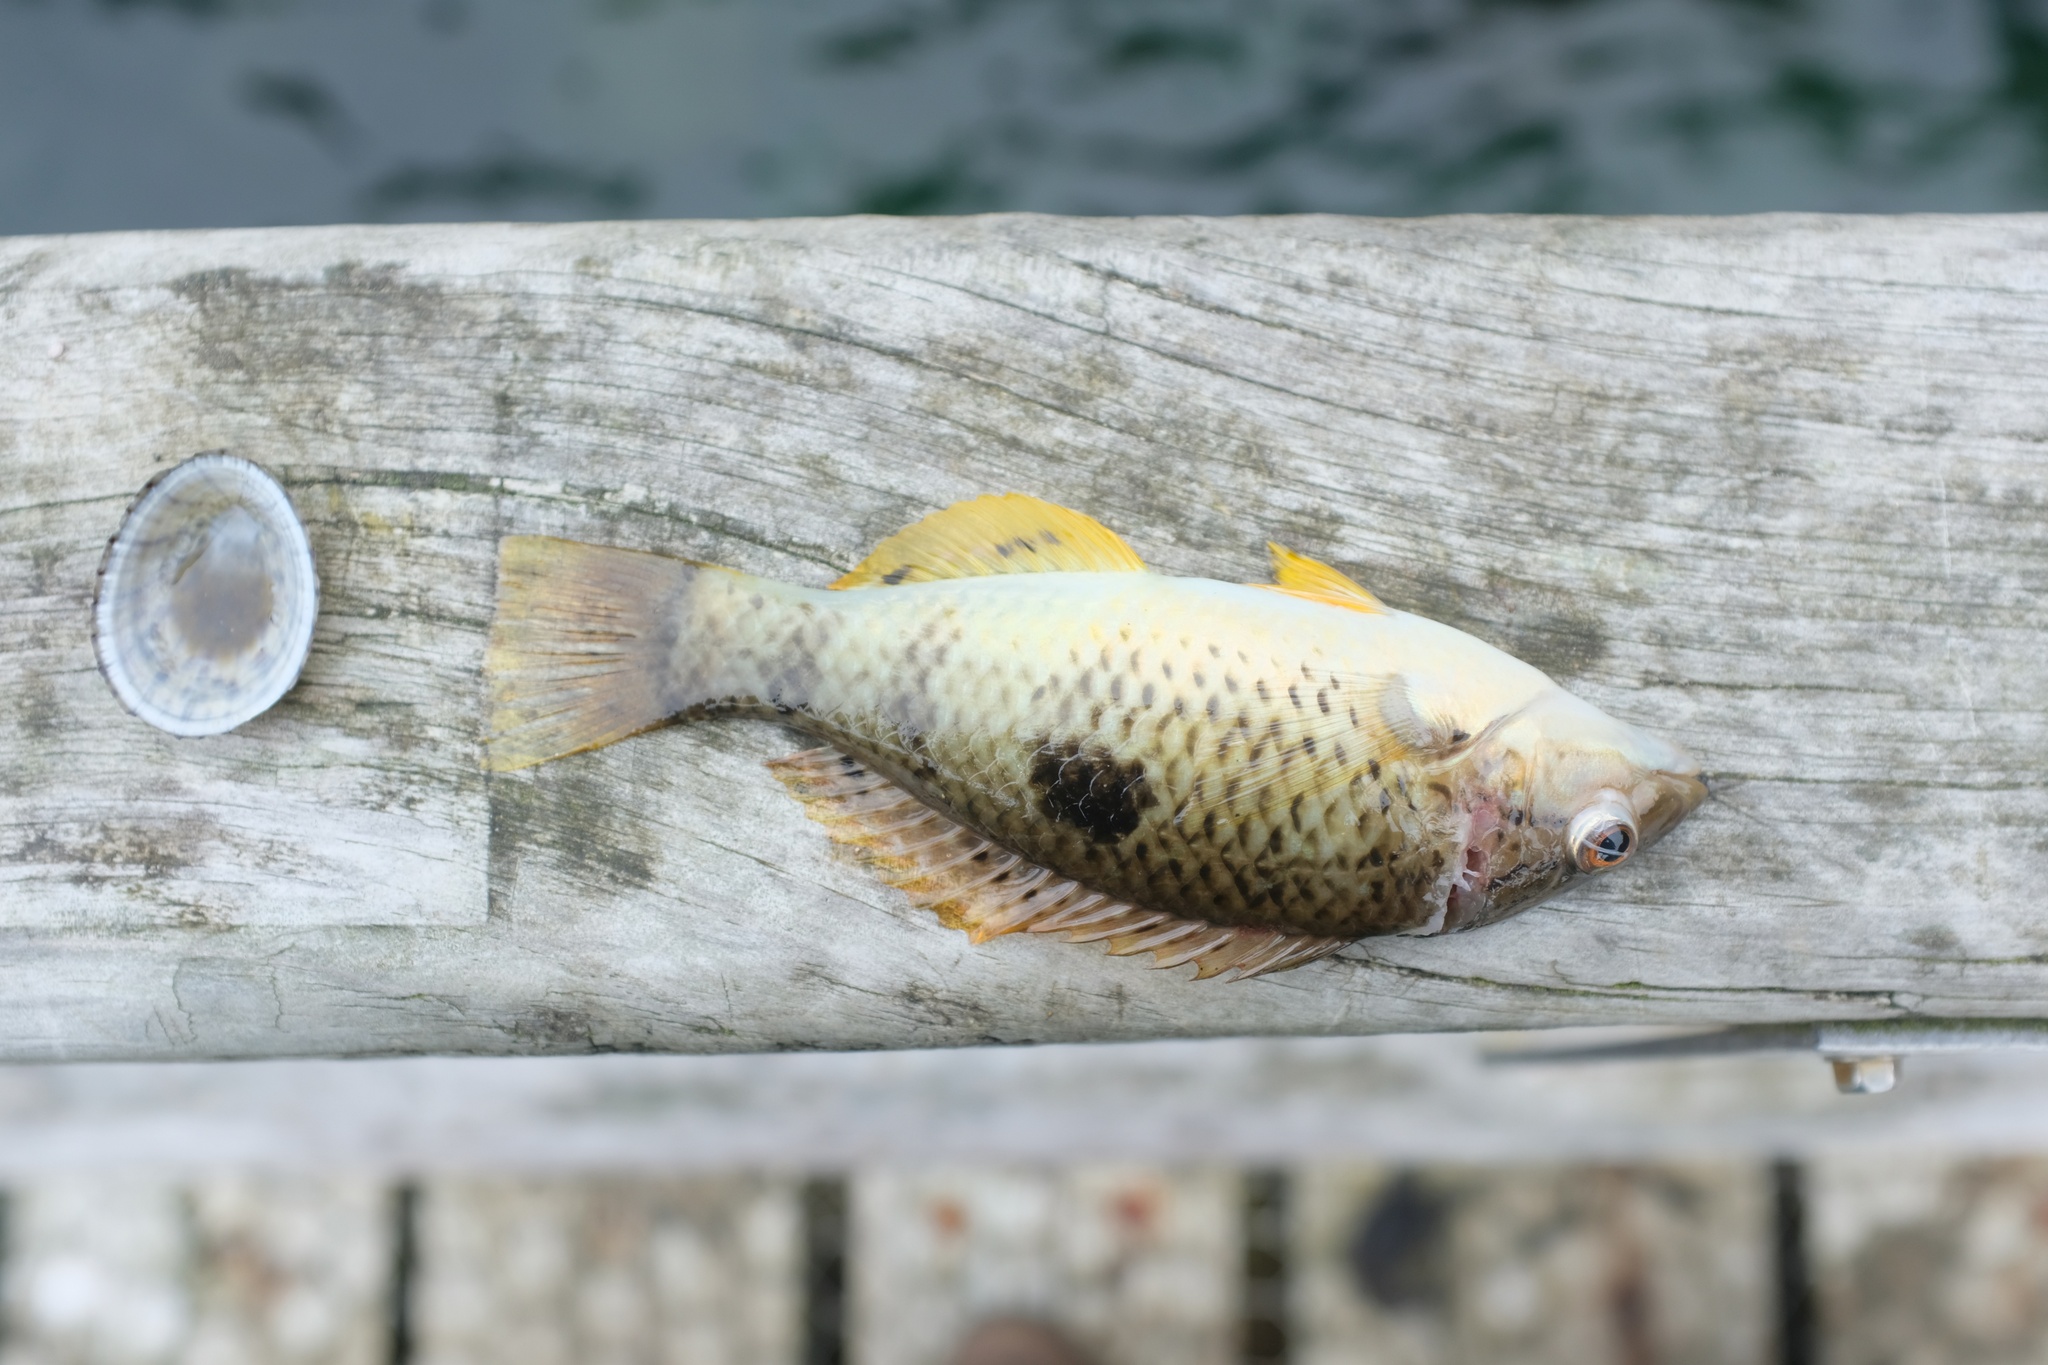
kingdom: Animalia
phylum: Chordata
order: Perciformes
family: Labridae
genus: Notolabrus
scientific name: Notolabrus celidotus
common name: Spotty
